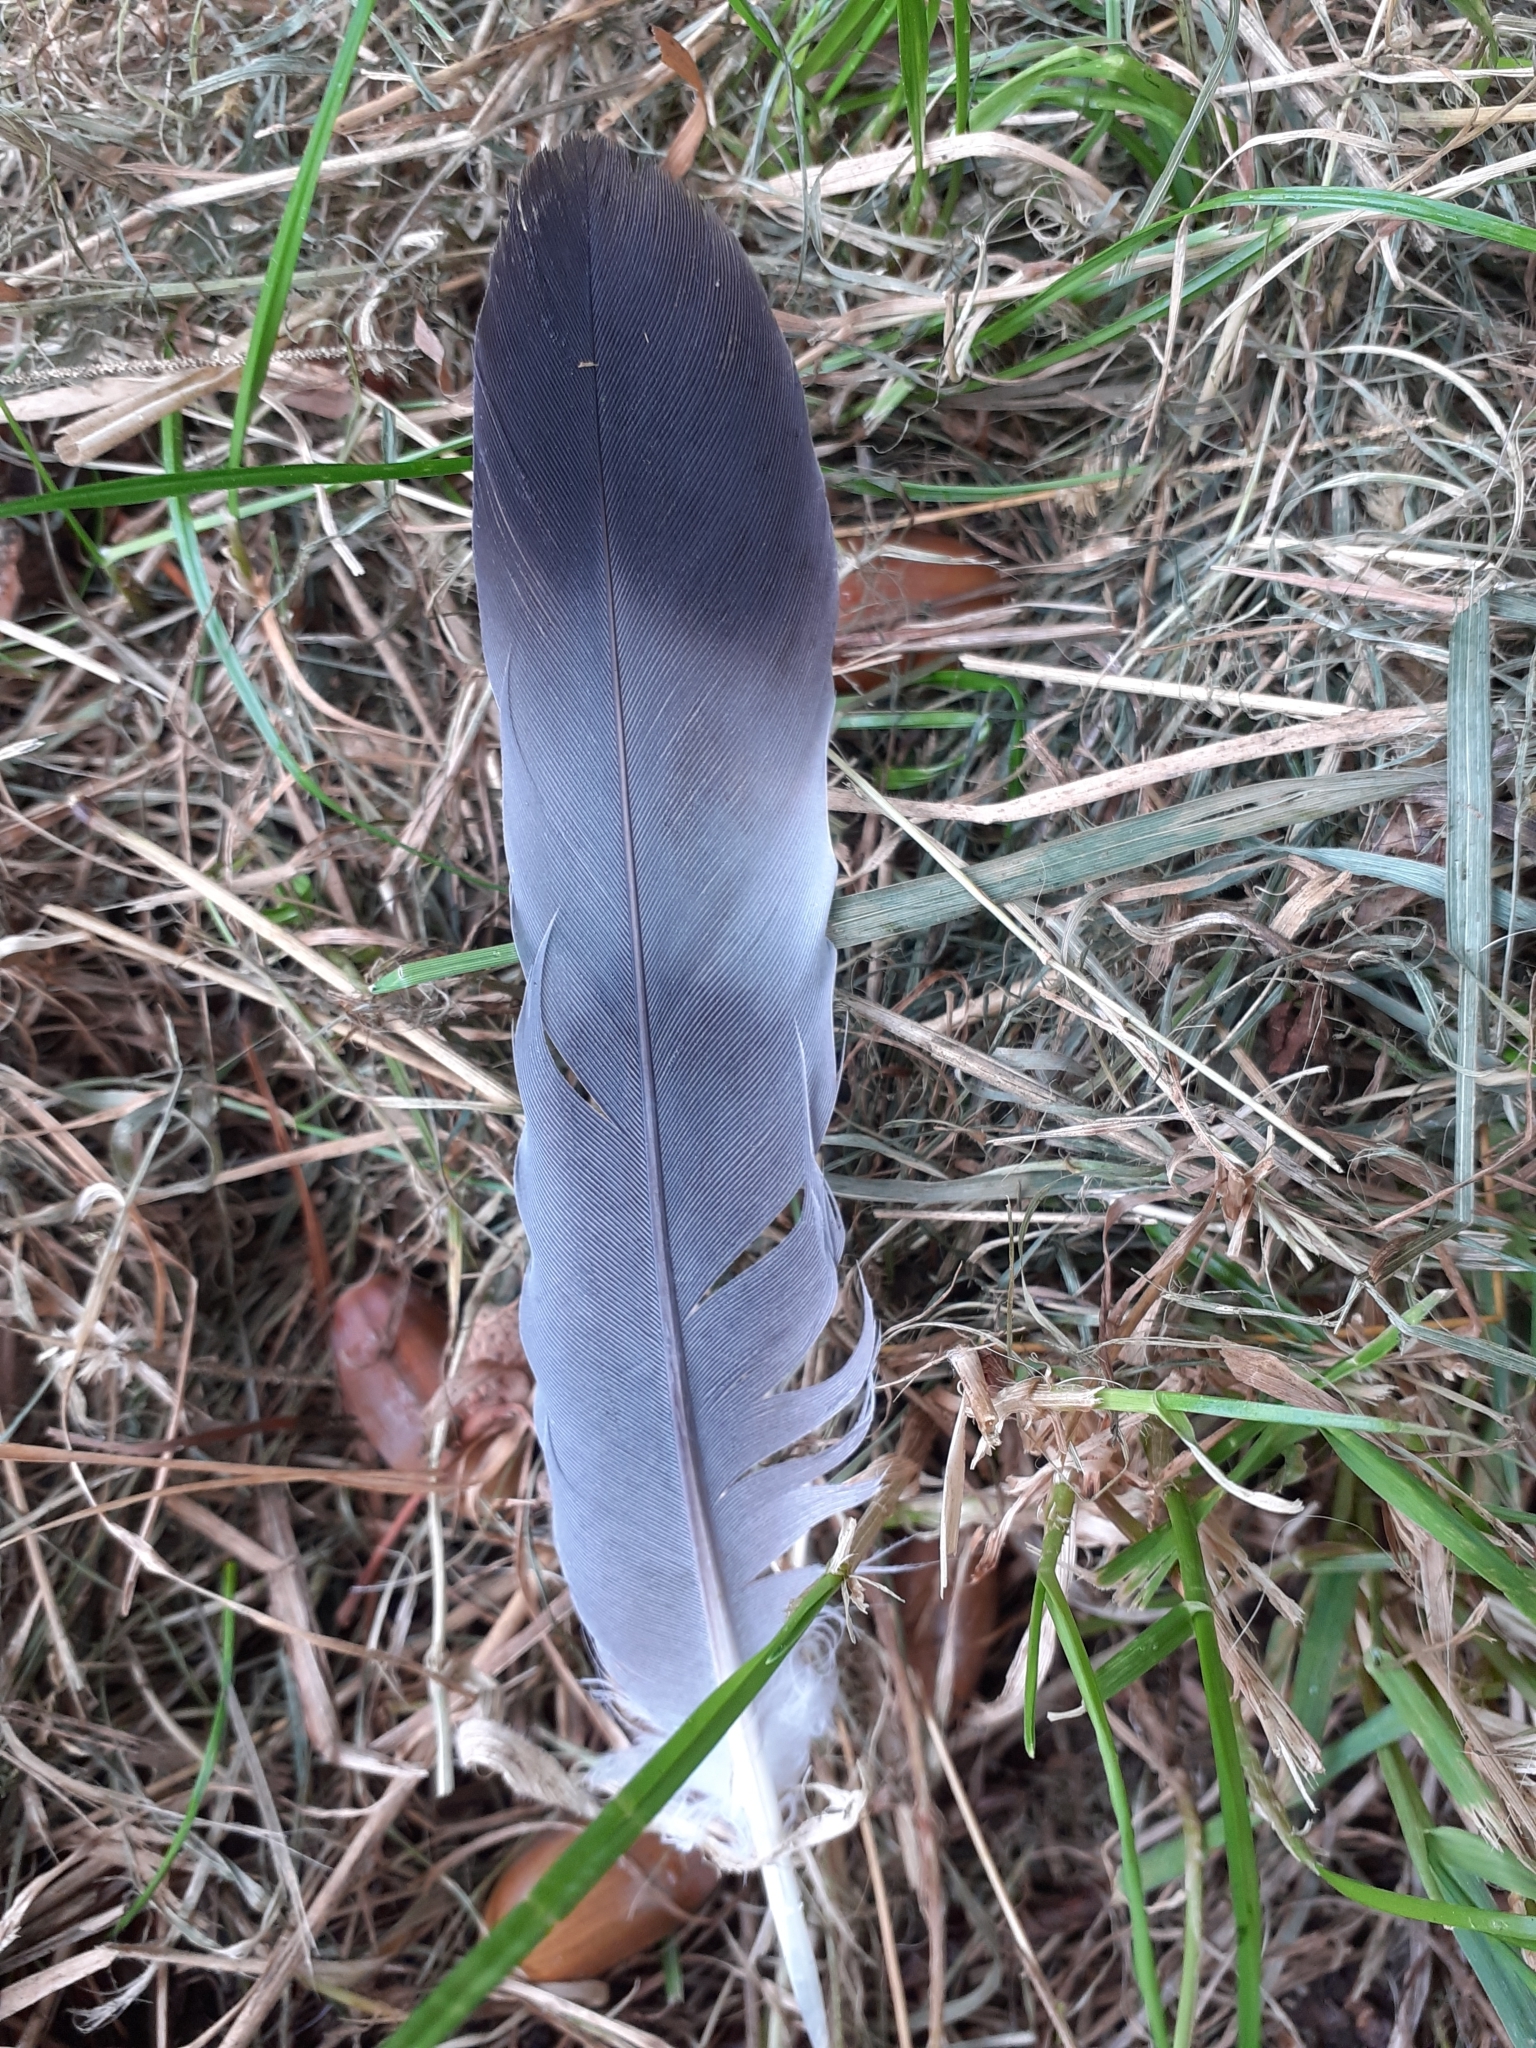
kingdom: Animalia
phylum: Chordata
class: Aves
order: Columbiformes
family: Columbidae
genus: Columba
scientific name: Columba palumbus
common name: Common wood pigeon
